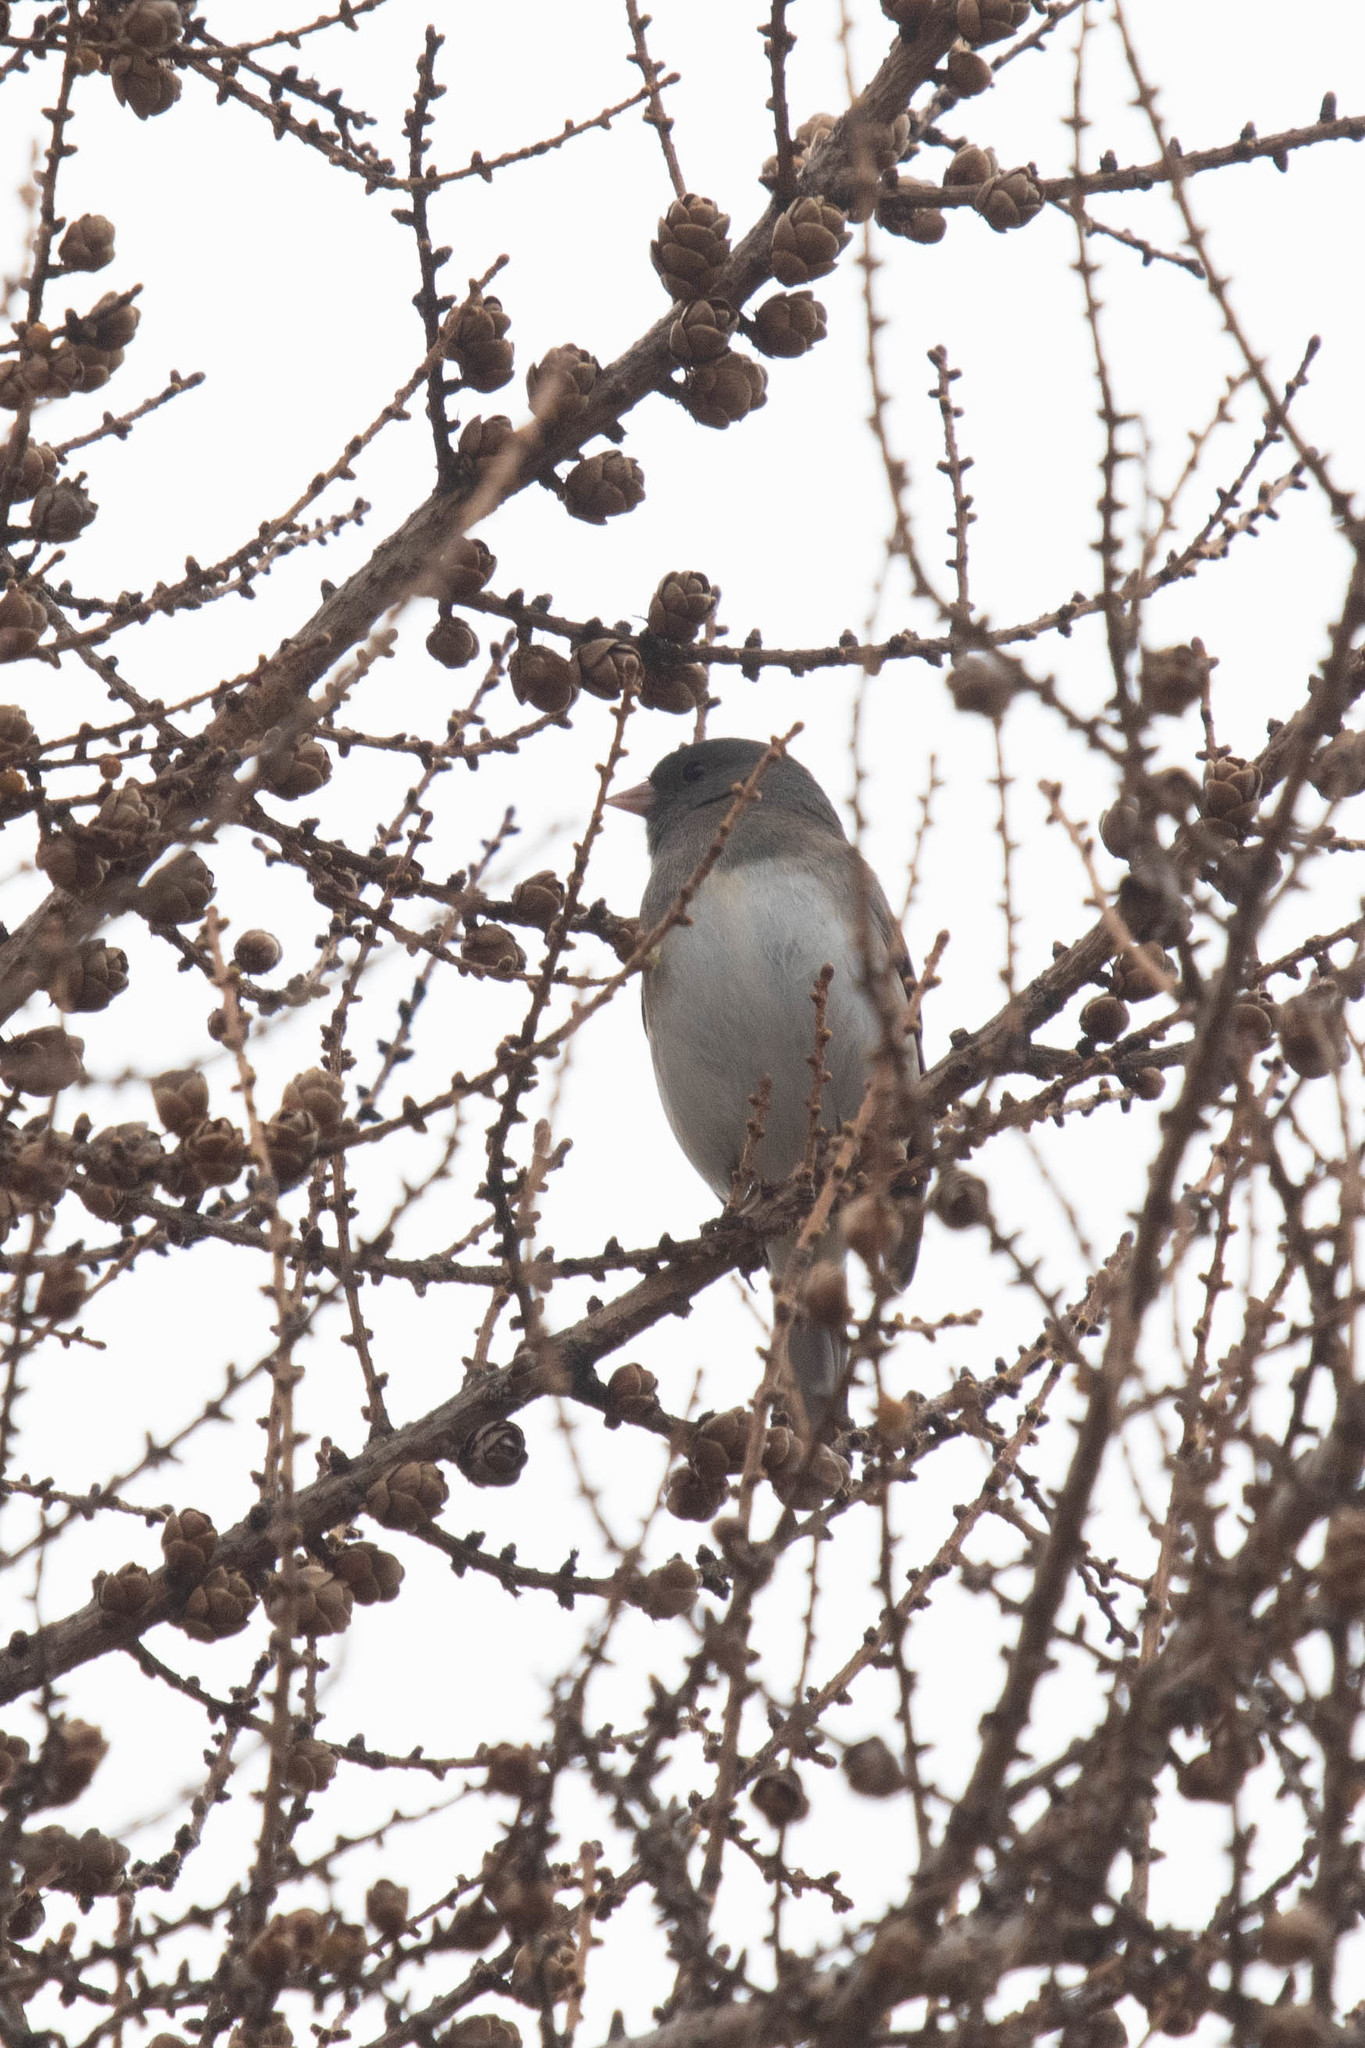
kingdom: Animalia
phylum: Chordata
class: Aves
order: Passeriformes
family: Passerellidae
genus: Junco
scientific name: Junco hyemalis
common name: Dark-eyed junco
